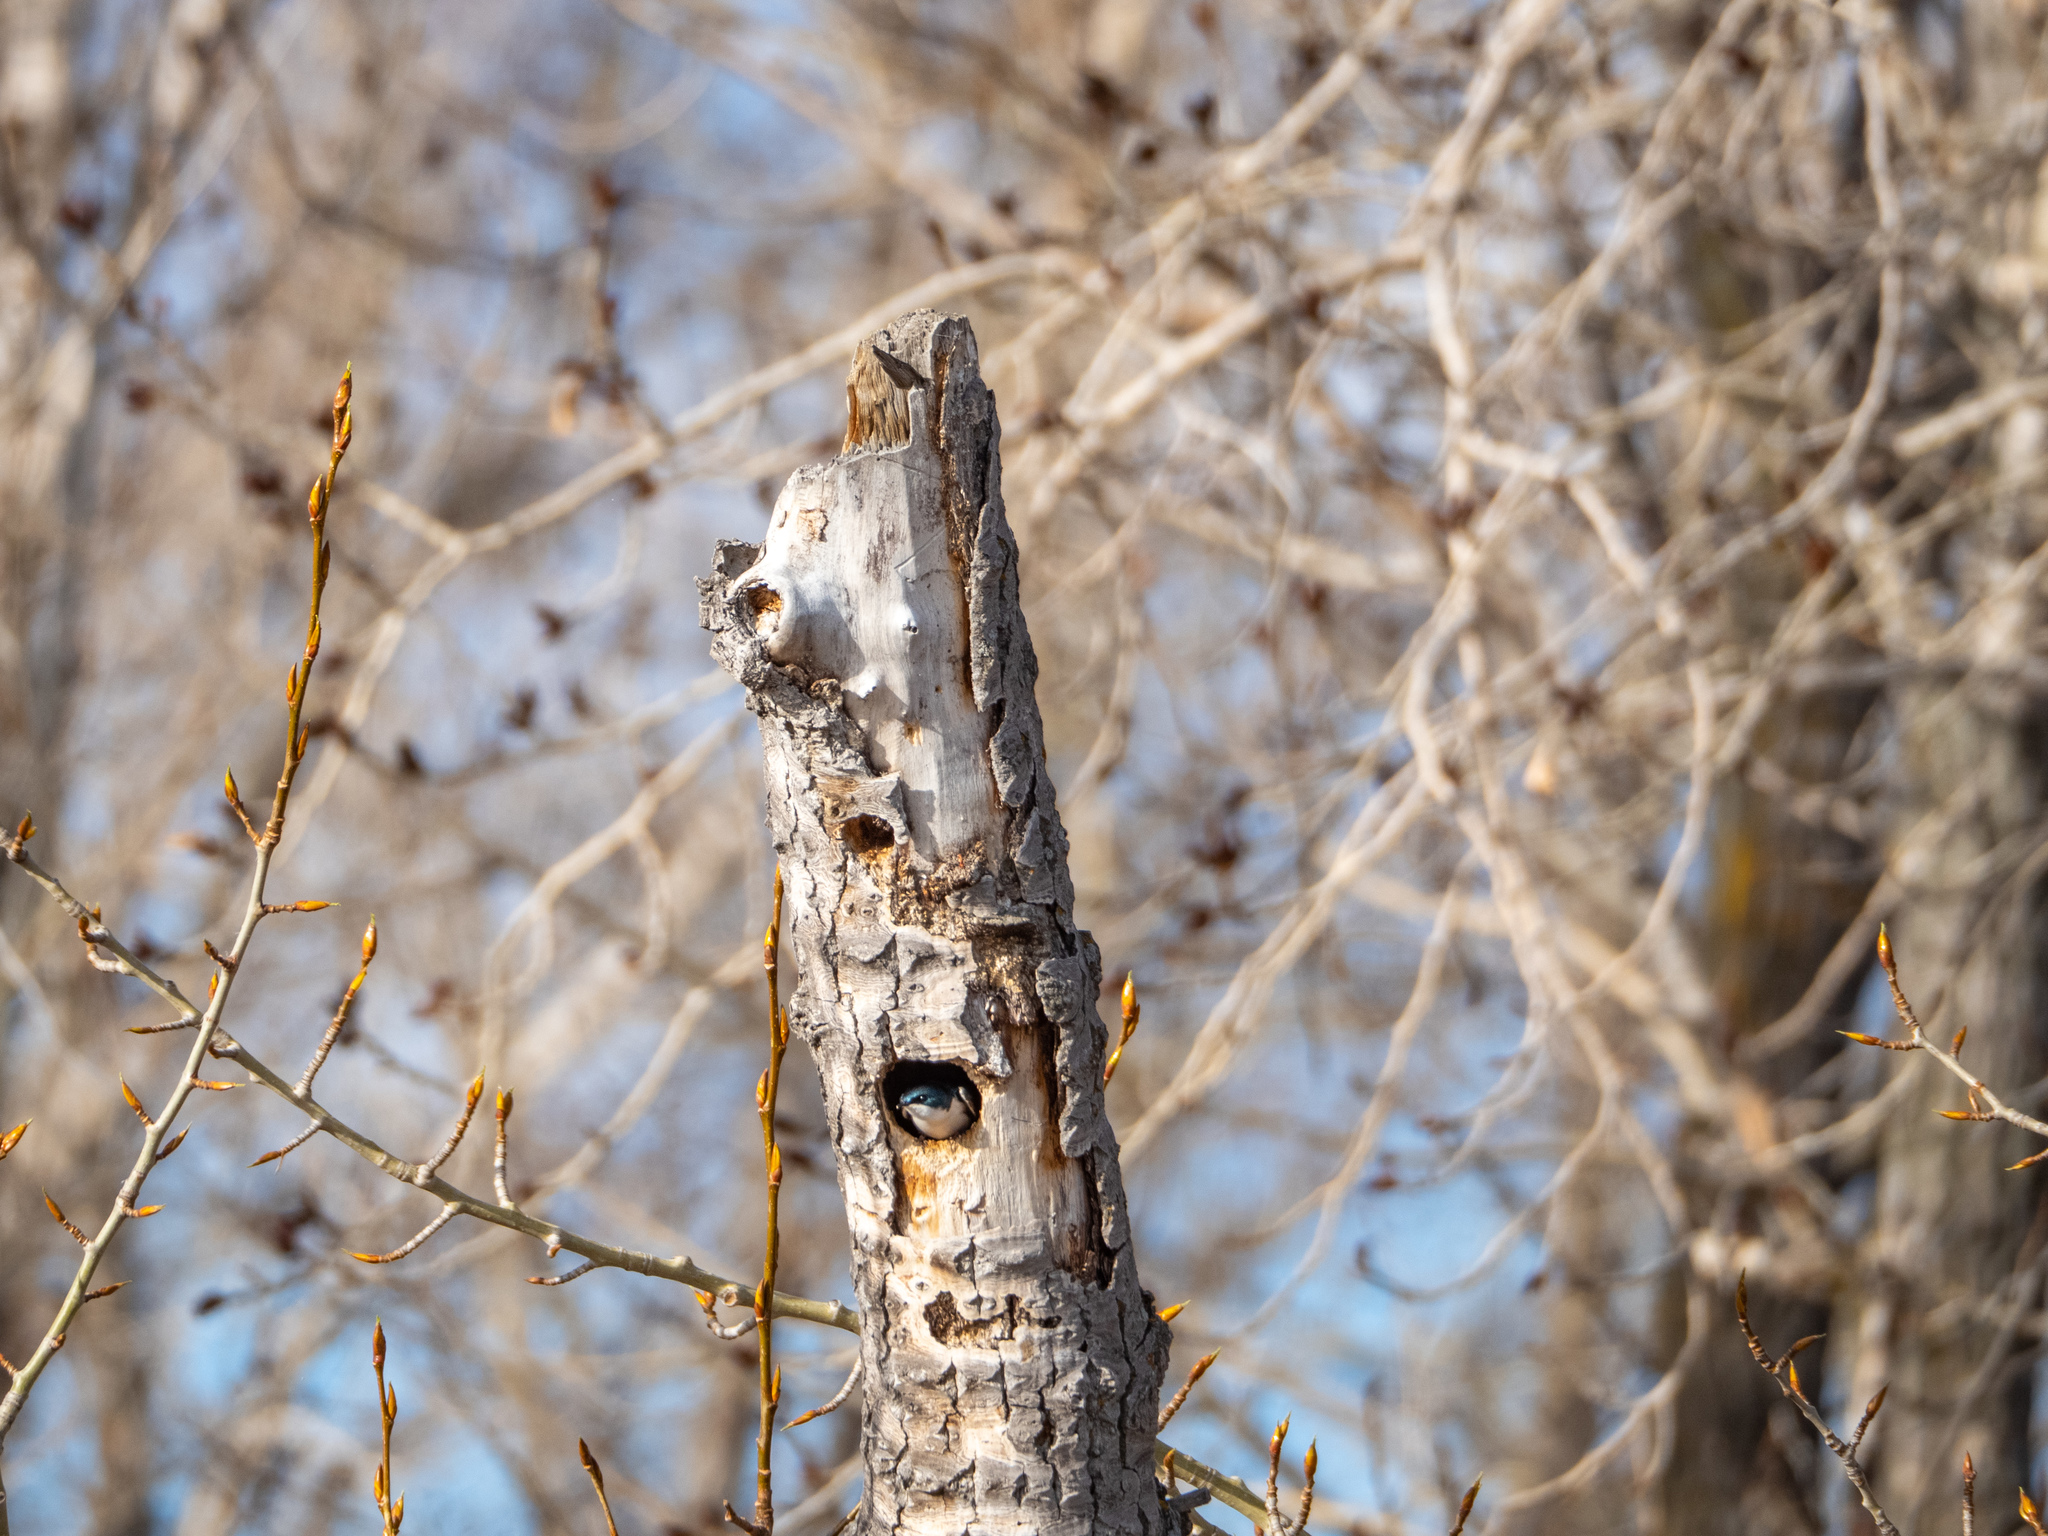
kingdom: Animalia
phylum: Chordata
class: Aves
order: Passeriformes
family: Hirundinidae
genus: Tachycineta
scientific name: Tachycineta bicolor
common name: Tree swallow
